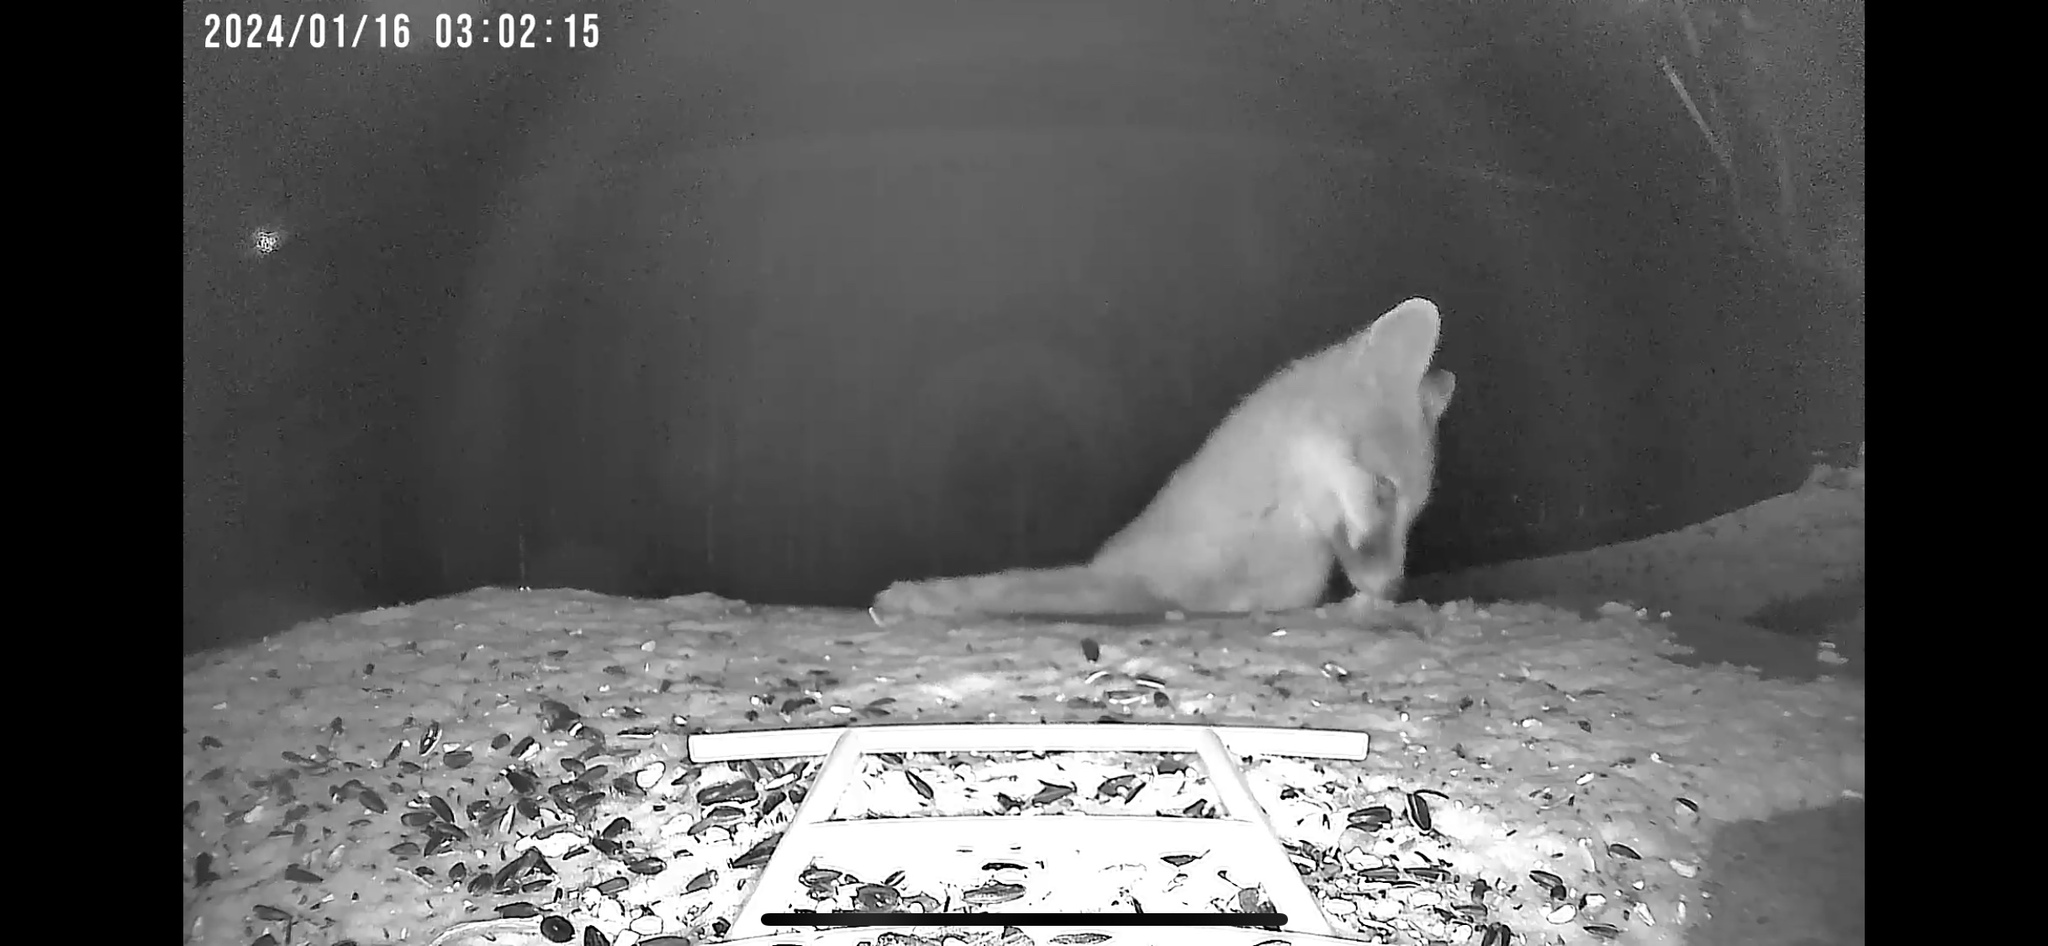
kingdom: Animalia
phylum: Chordata
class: Mammalia
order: Carnivora
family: Canidae
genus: Urocyon
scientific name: Urocyon cinereoargenteus
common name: Gray fox
